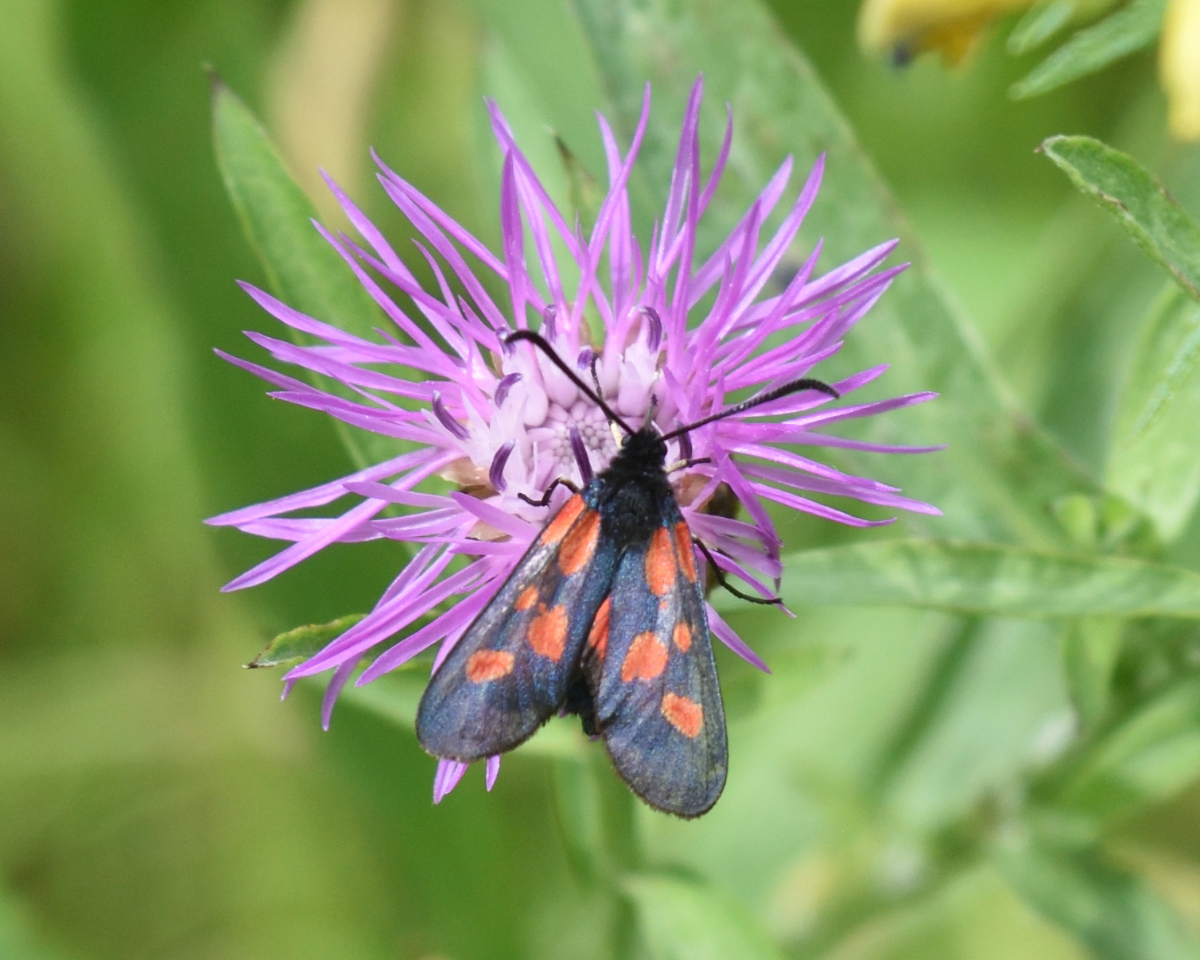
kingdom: Animalia
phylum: Arthropoda
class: Insecta
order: Lepidoptera
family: Zygaenidae
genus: Zygaena
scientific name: Zygaena viciae
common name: New forest burnet
